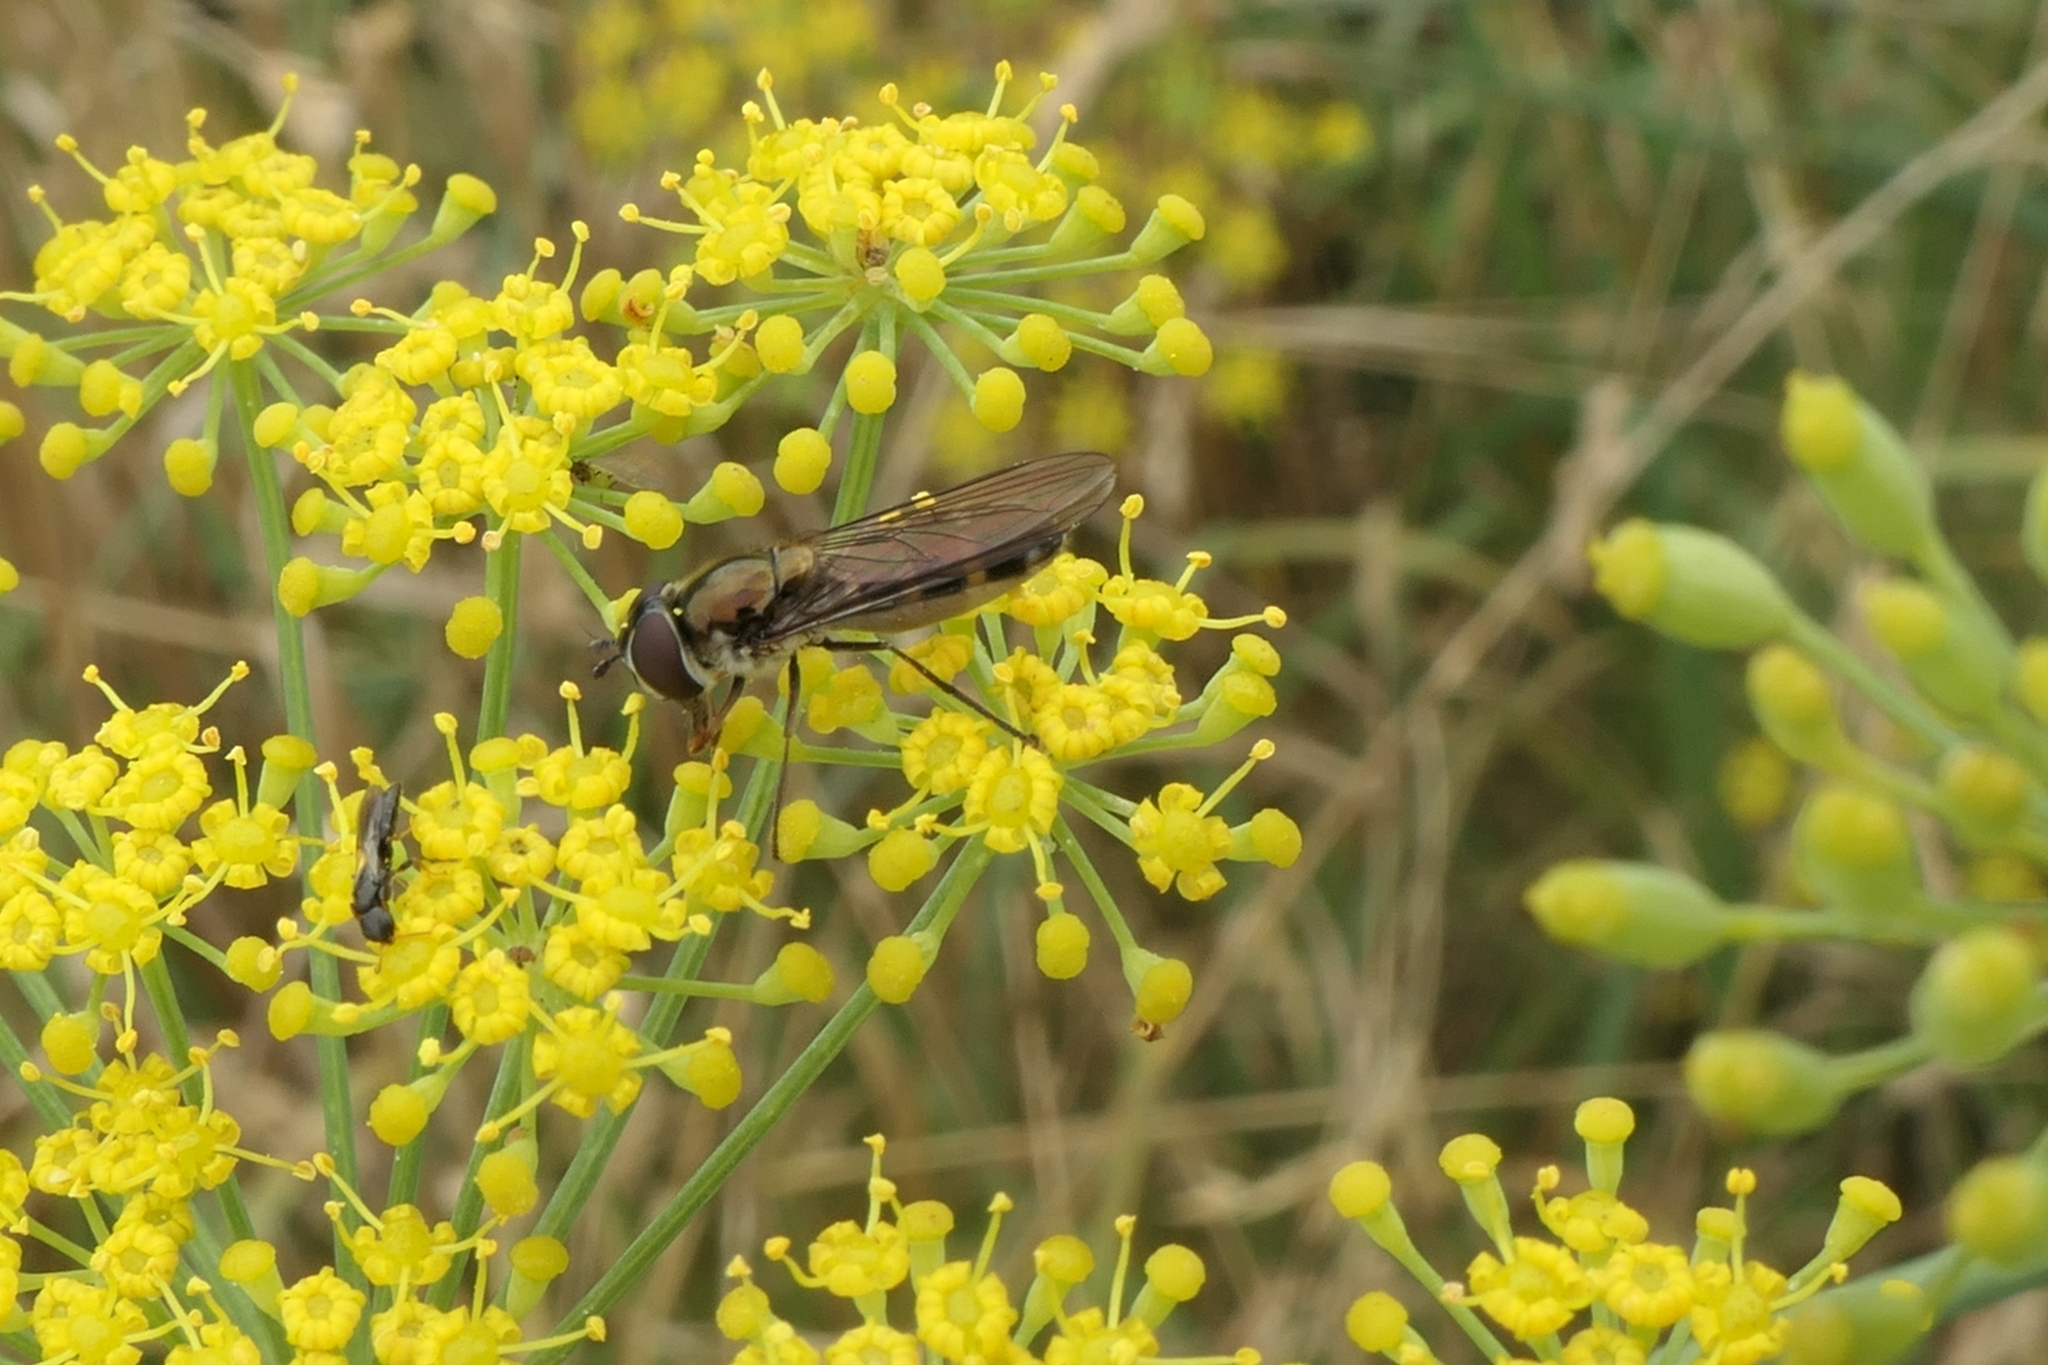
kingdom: Animalia
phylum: Arthropoda
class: Insecta
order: Diptera
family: Syrphidae
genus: Melangyna
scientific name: Melangyna novaezelandiae
